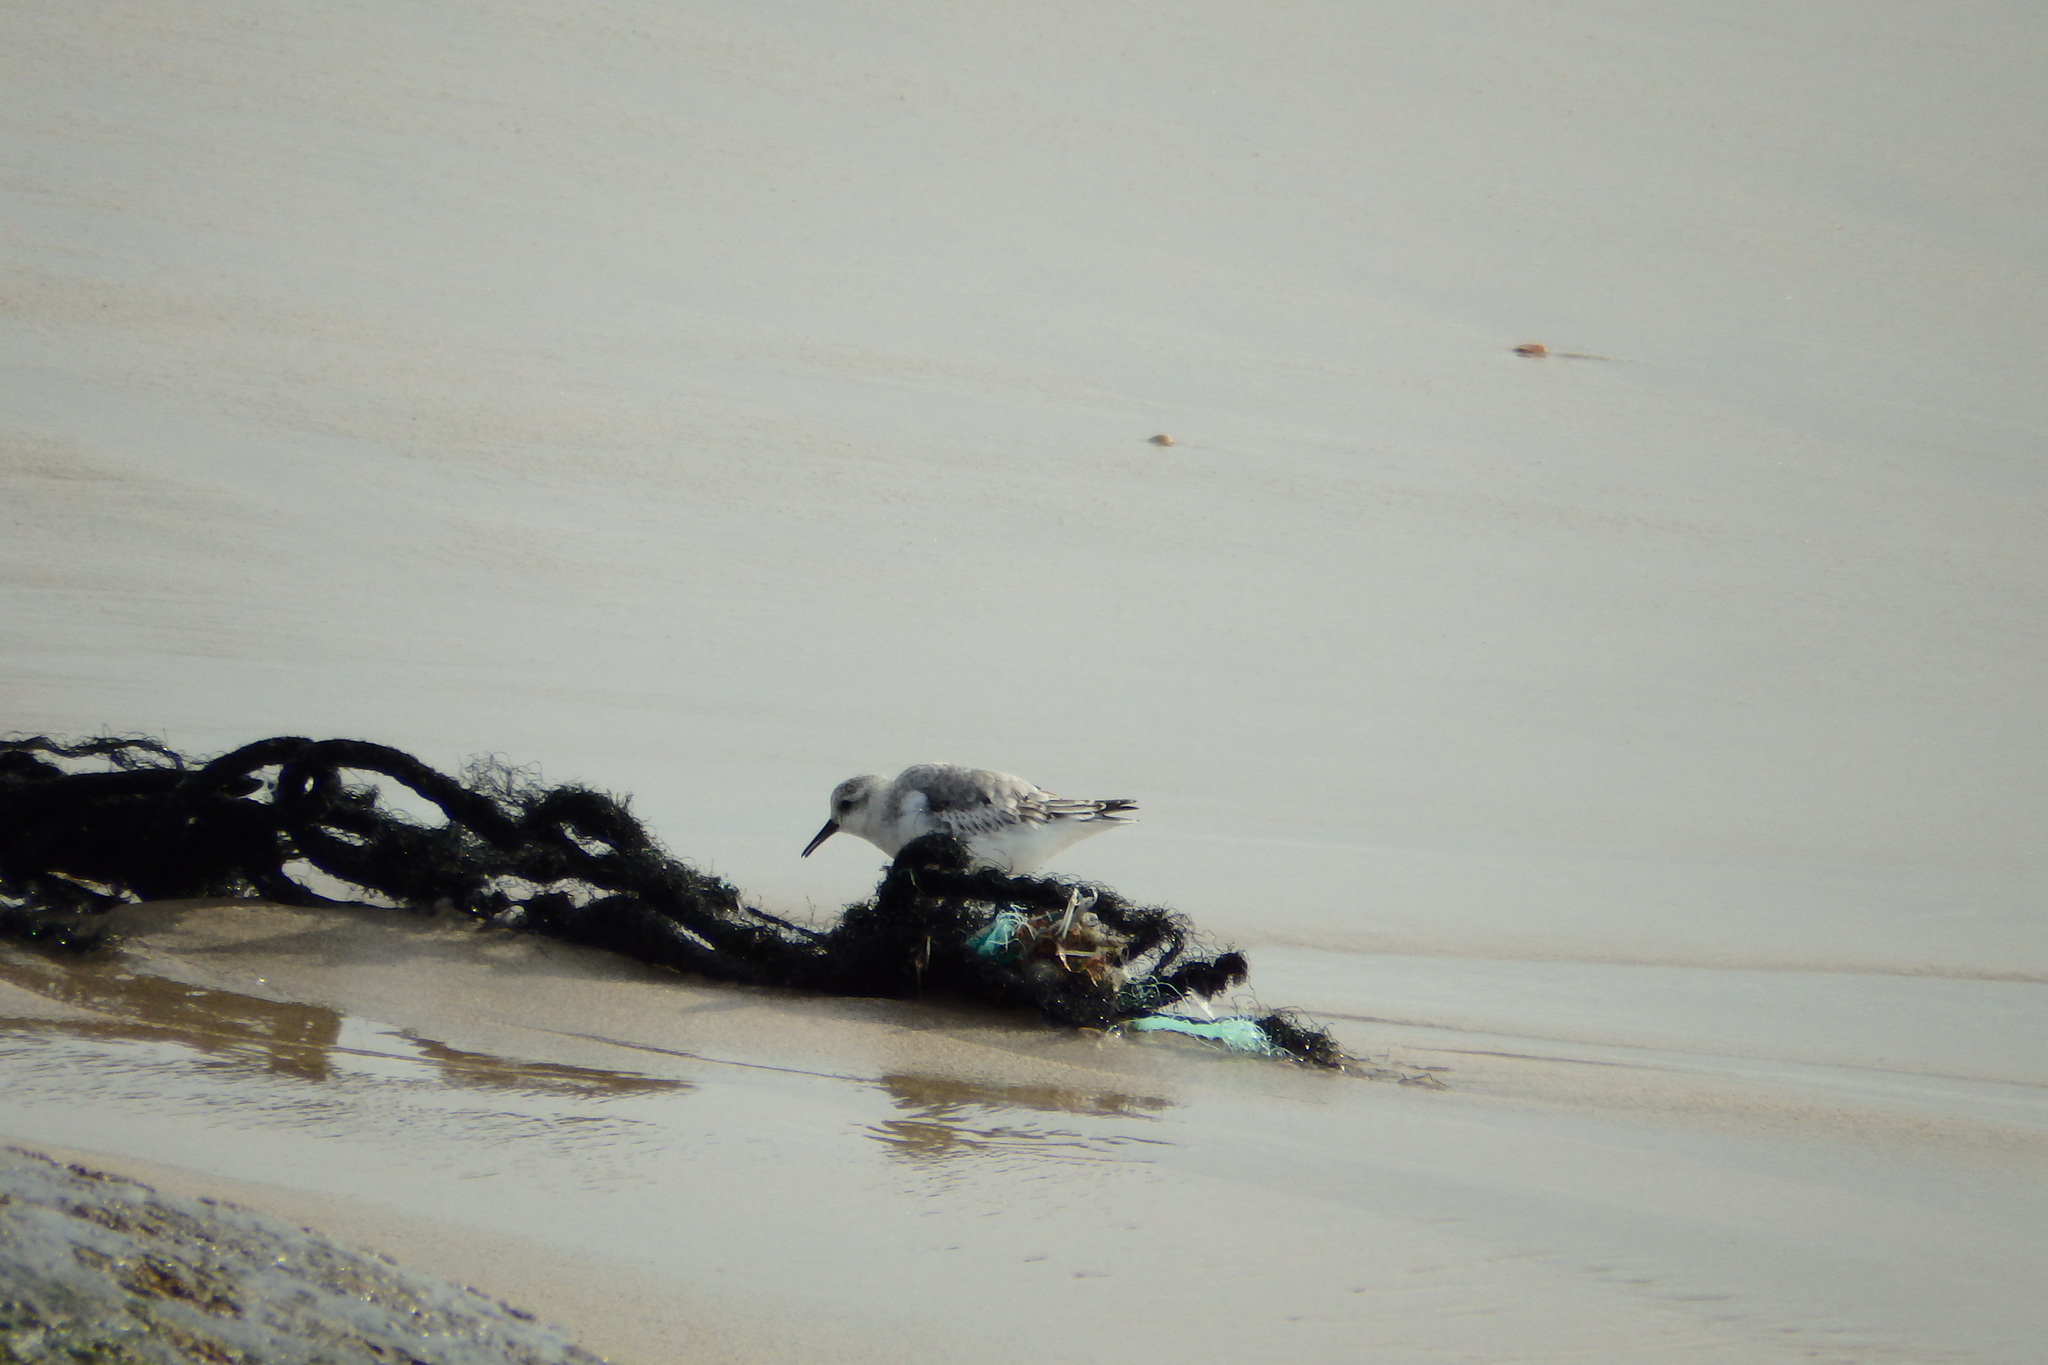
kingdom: Animalia
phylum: Chordata
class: Aves
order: Charadriiformes
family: Scolopacidae
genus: Calidris
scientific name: Calidris alba
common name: Sanderling
